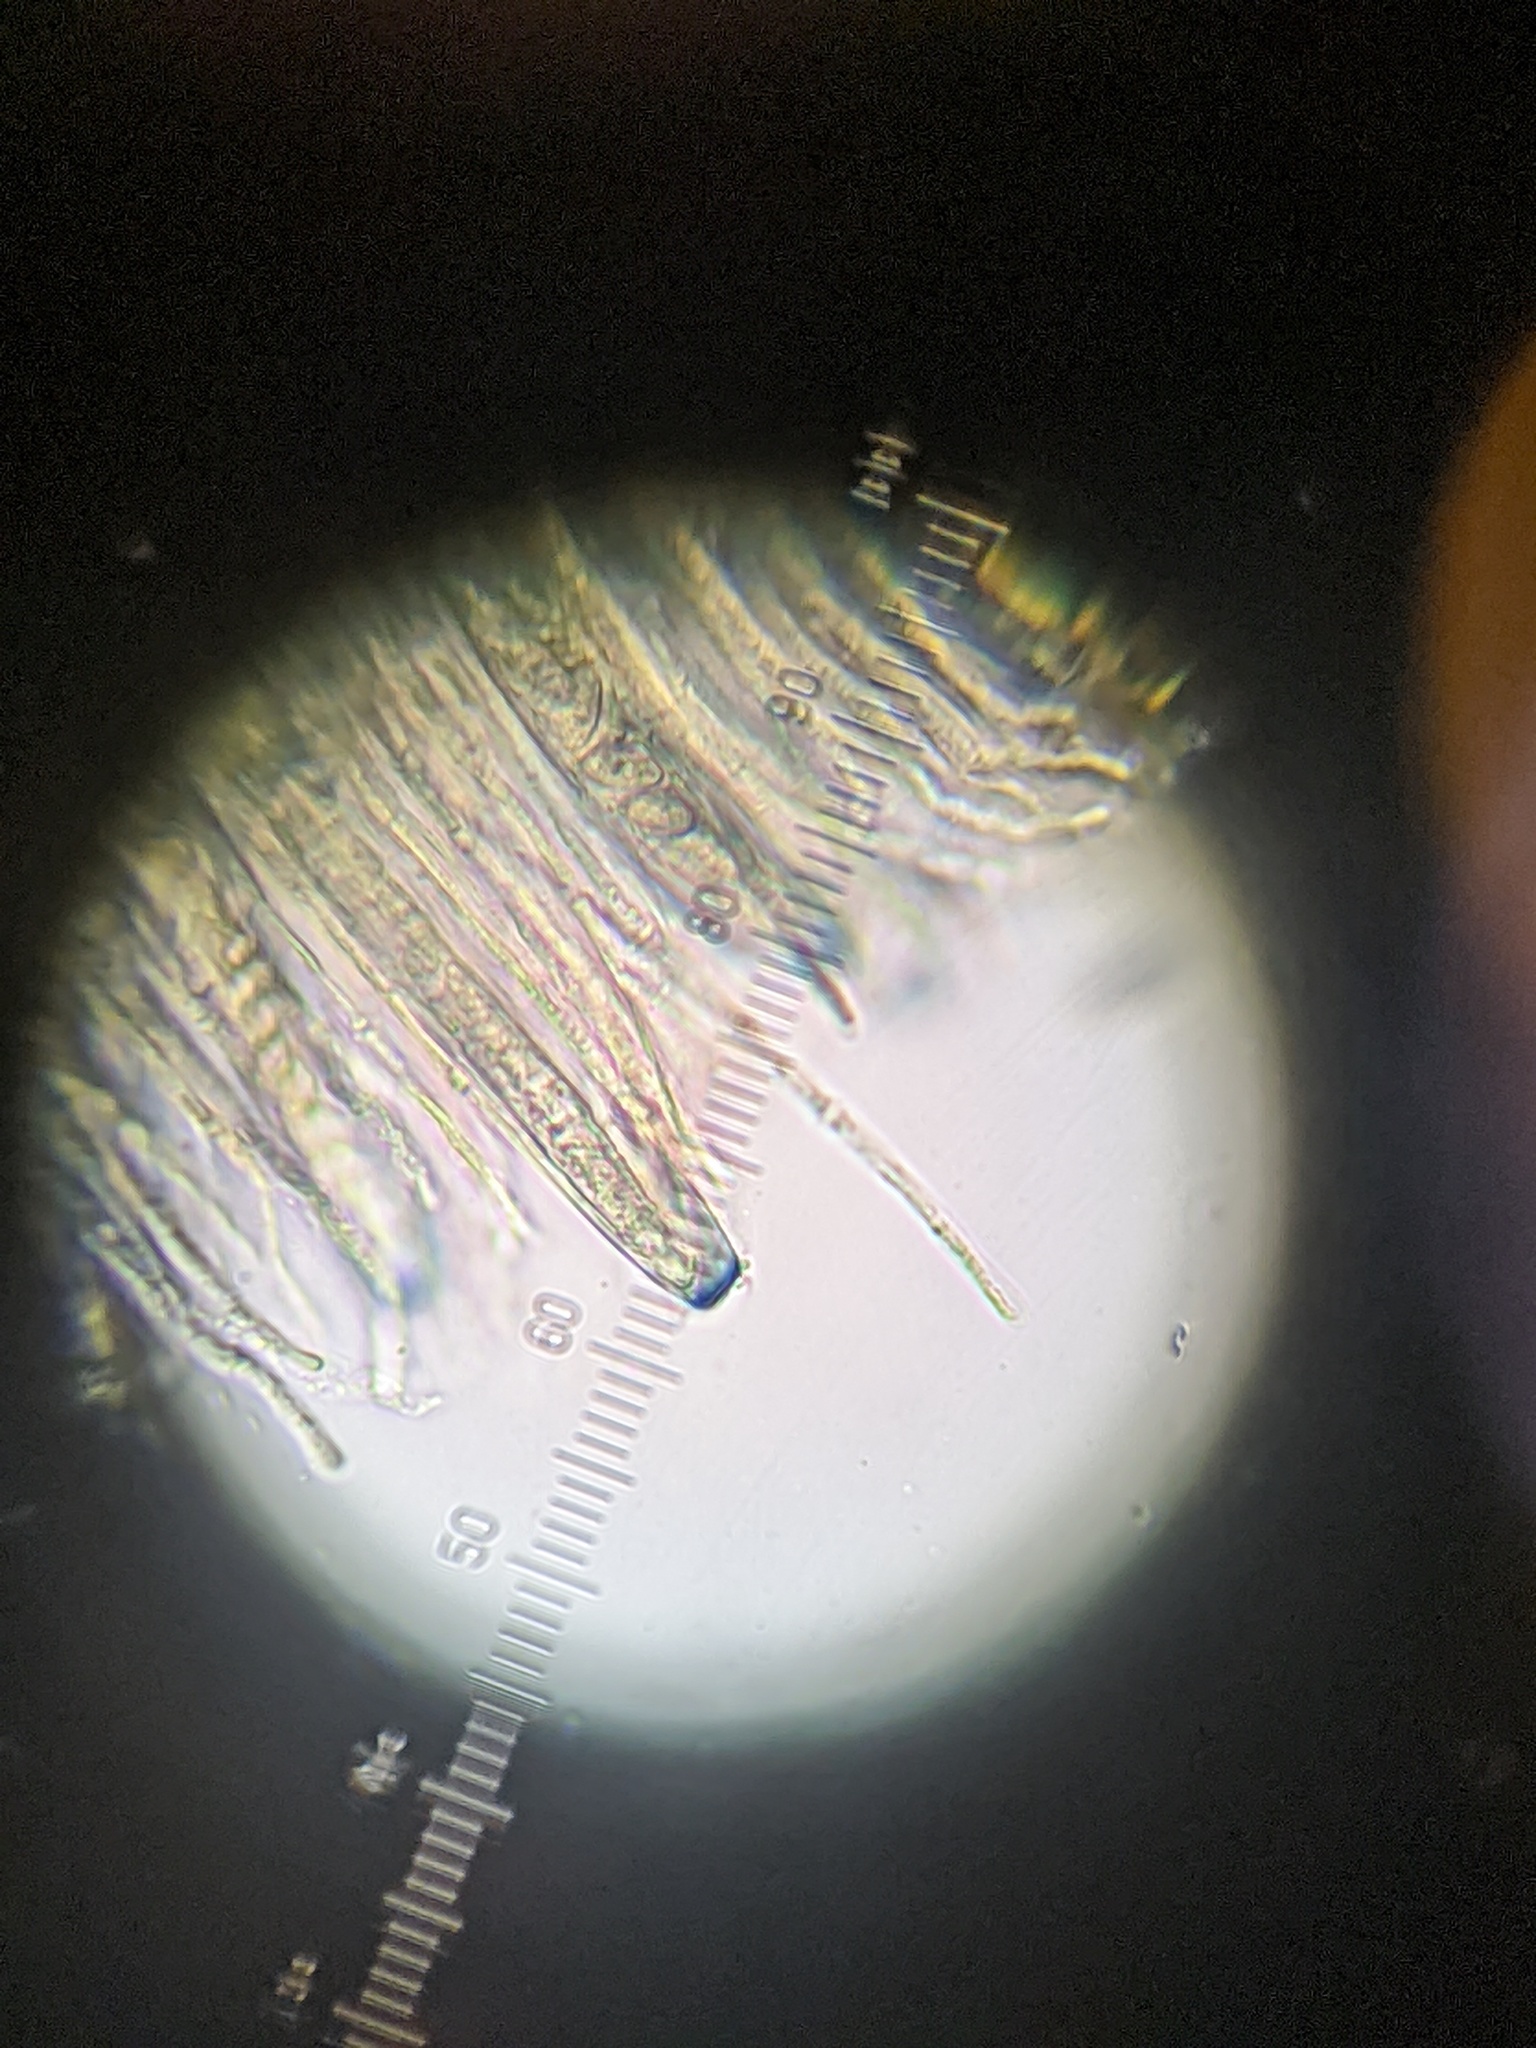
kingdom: Fungi
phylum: Ascomycota
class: Pezizomycetes
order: Pezizales
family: Pezizaceae
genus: Peziza
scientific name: Peziza varia
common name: Layered cup
